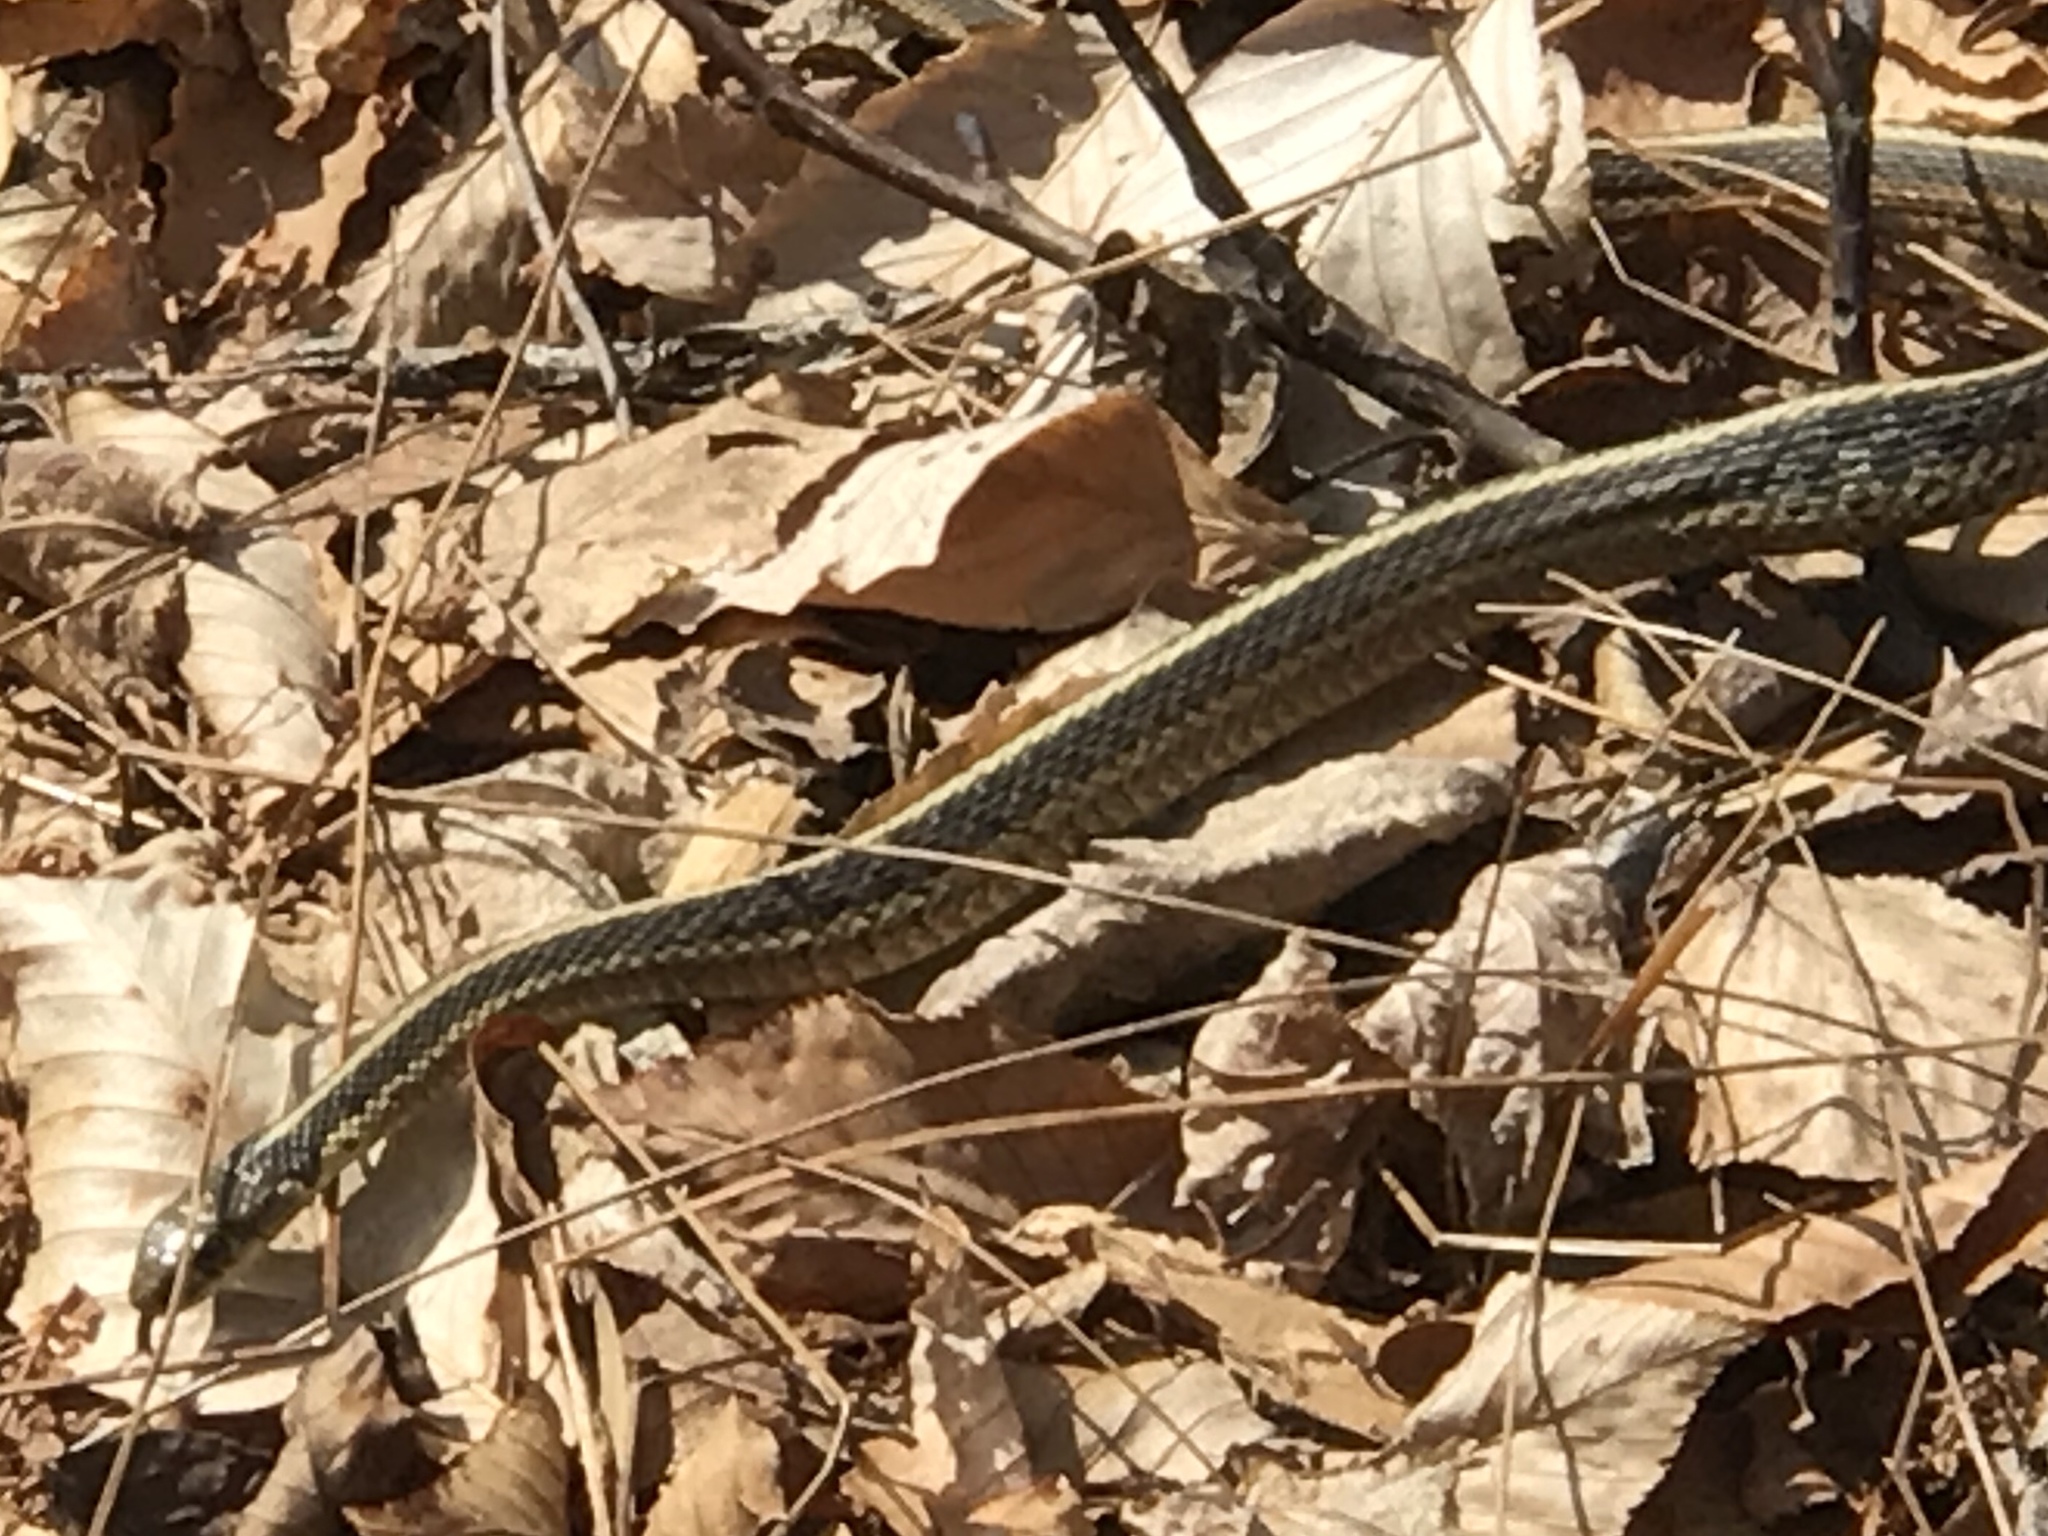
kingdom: Animalia
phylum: Chordata
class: Squamata
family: Colubridae
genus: Thamnophis
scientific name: Thamnophis sirtalis
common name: Common garter snake
